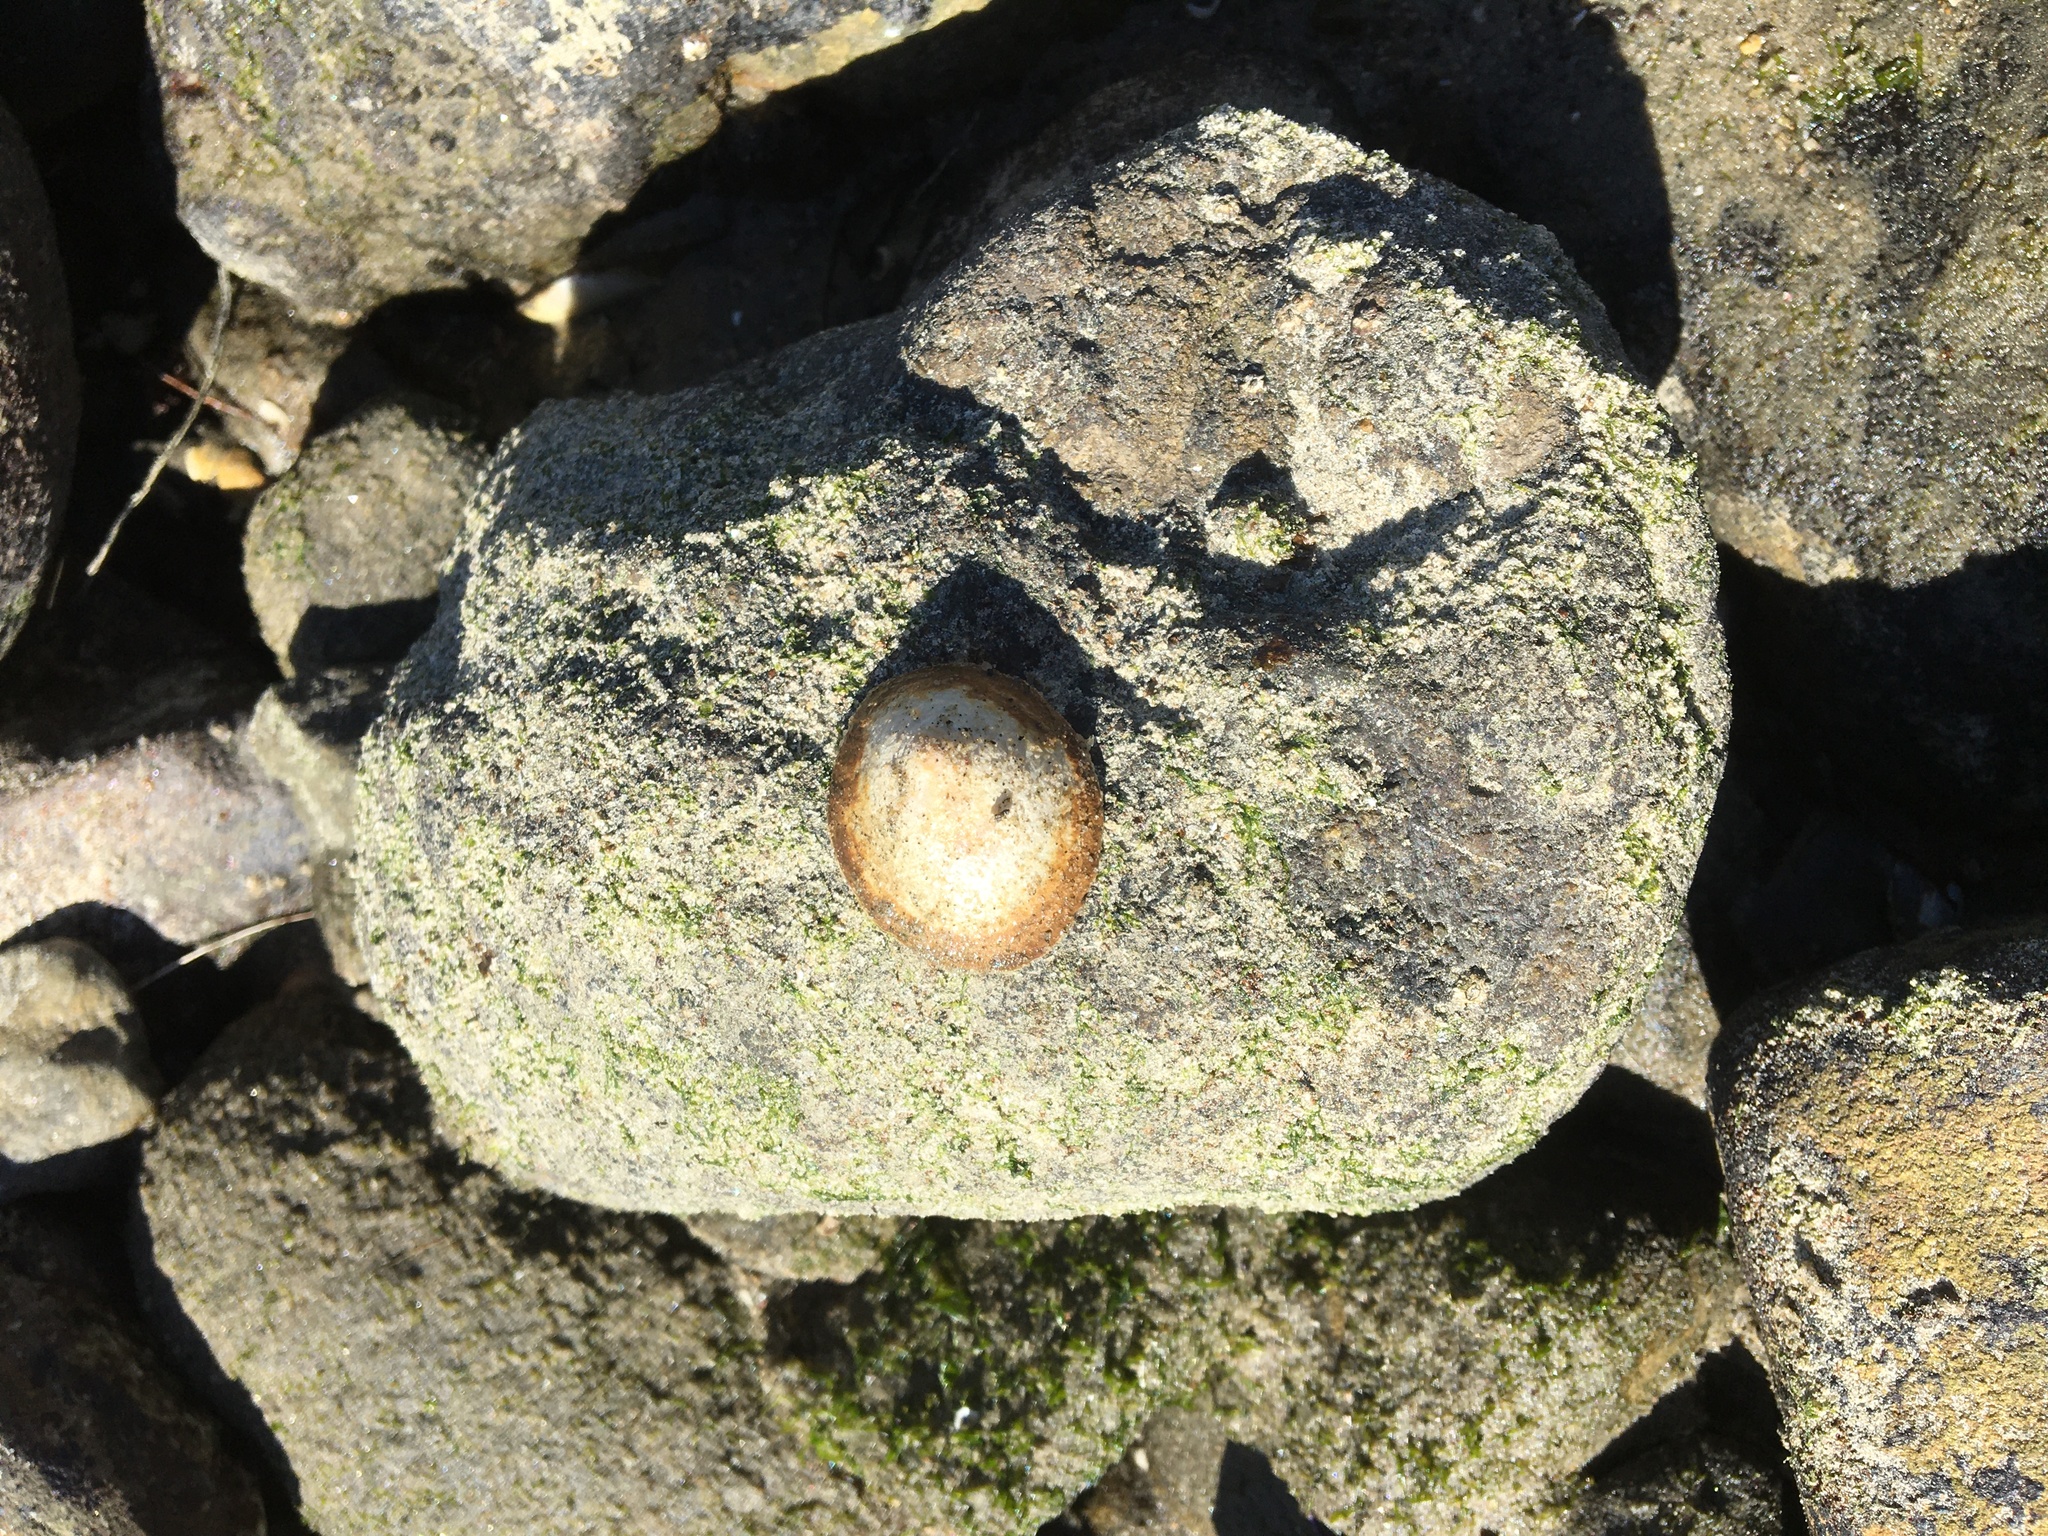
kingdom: Animalia
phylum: Mollusca
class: Gastropoda
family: Lottiidae
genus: Lottia
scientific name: Lottia gigantea
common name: Owl limpet
